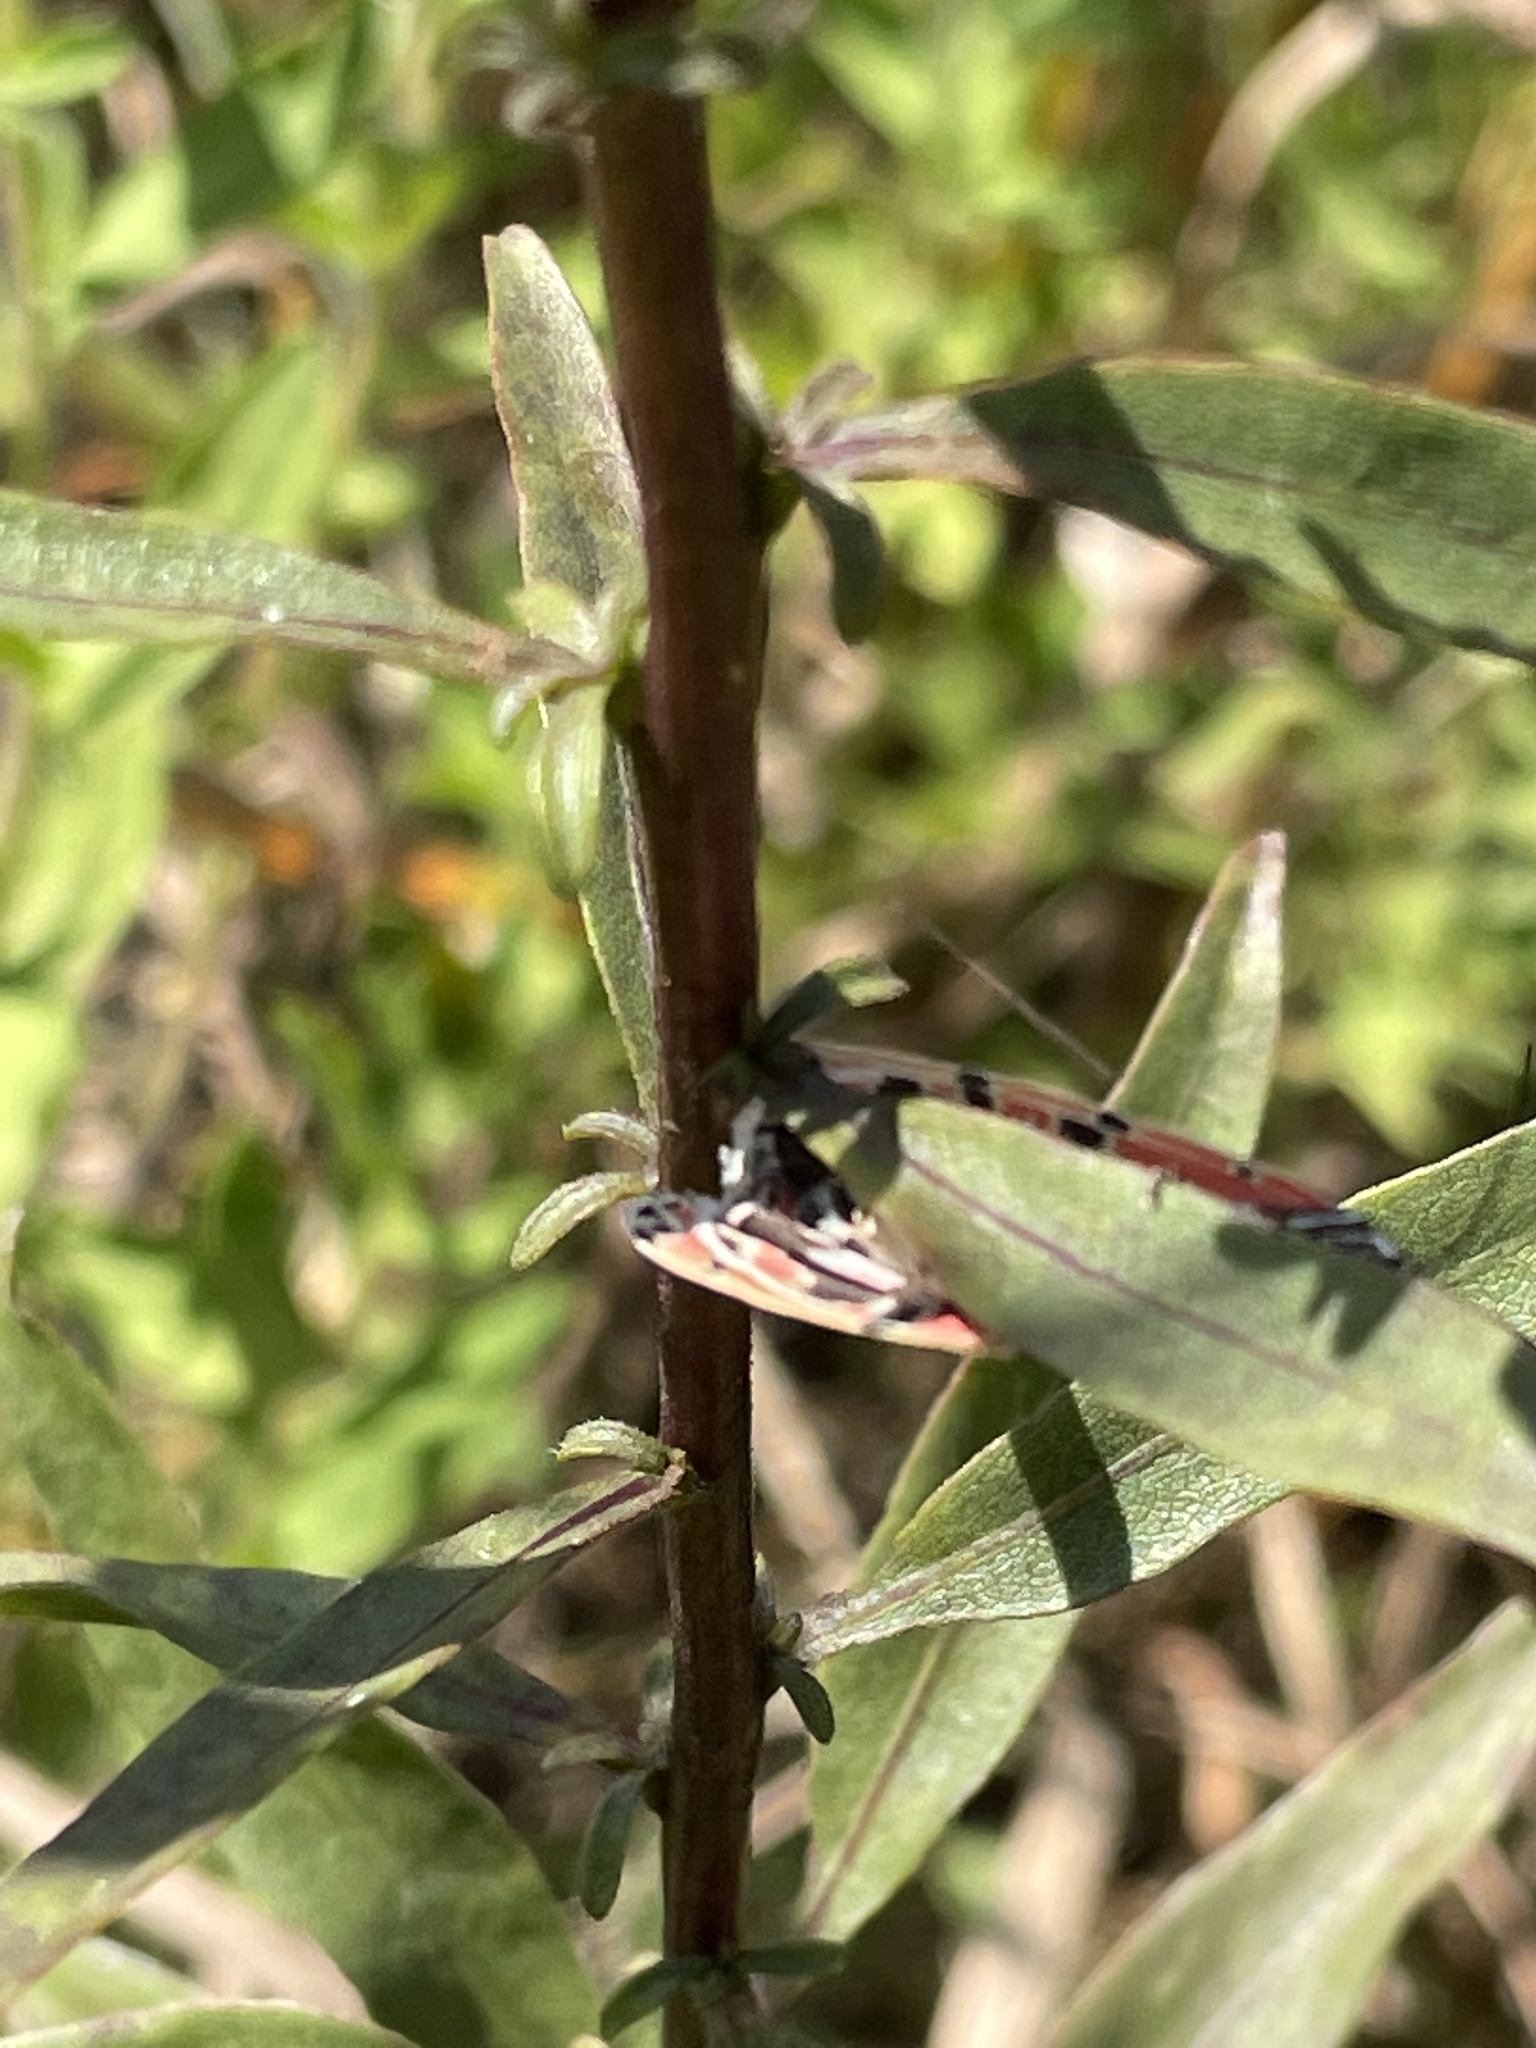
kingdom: Animalia
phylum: Arthropoda
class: Insecta
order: Lepidoptera
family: Erebidae
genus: Utetheisa
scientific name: Utetheisa ornatrix
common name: Beautiful utetheisa
